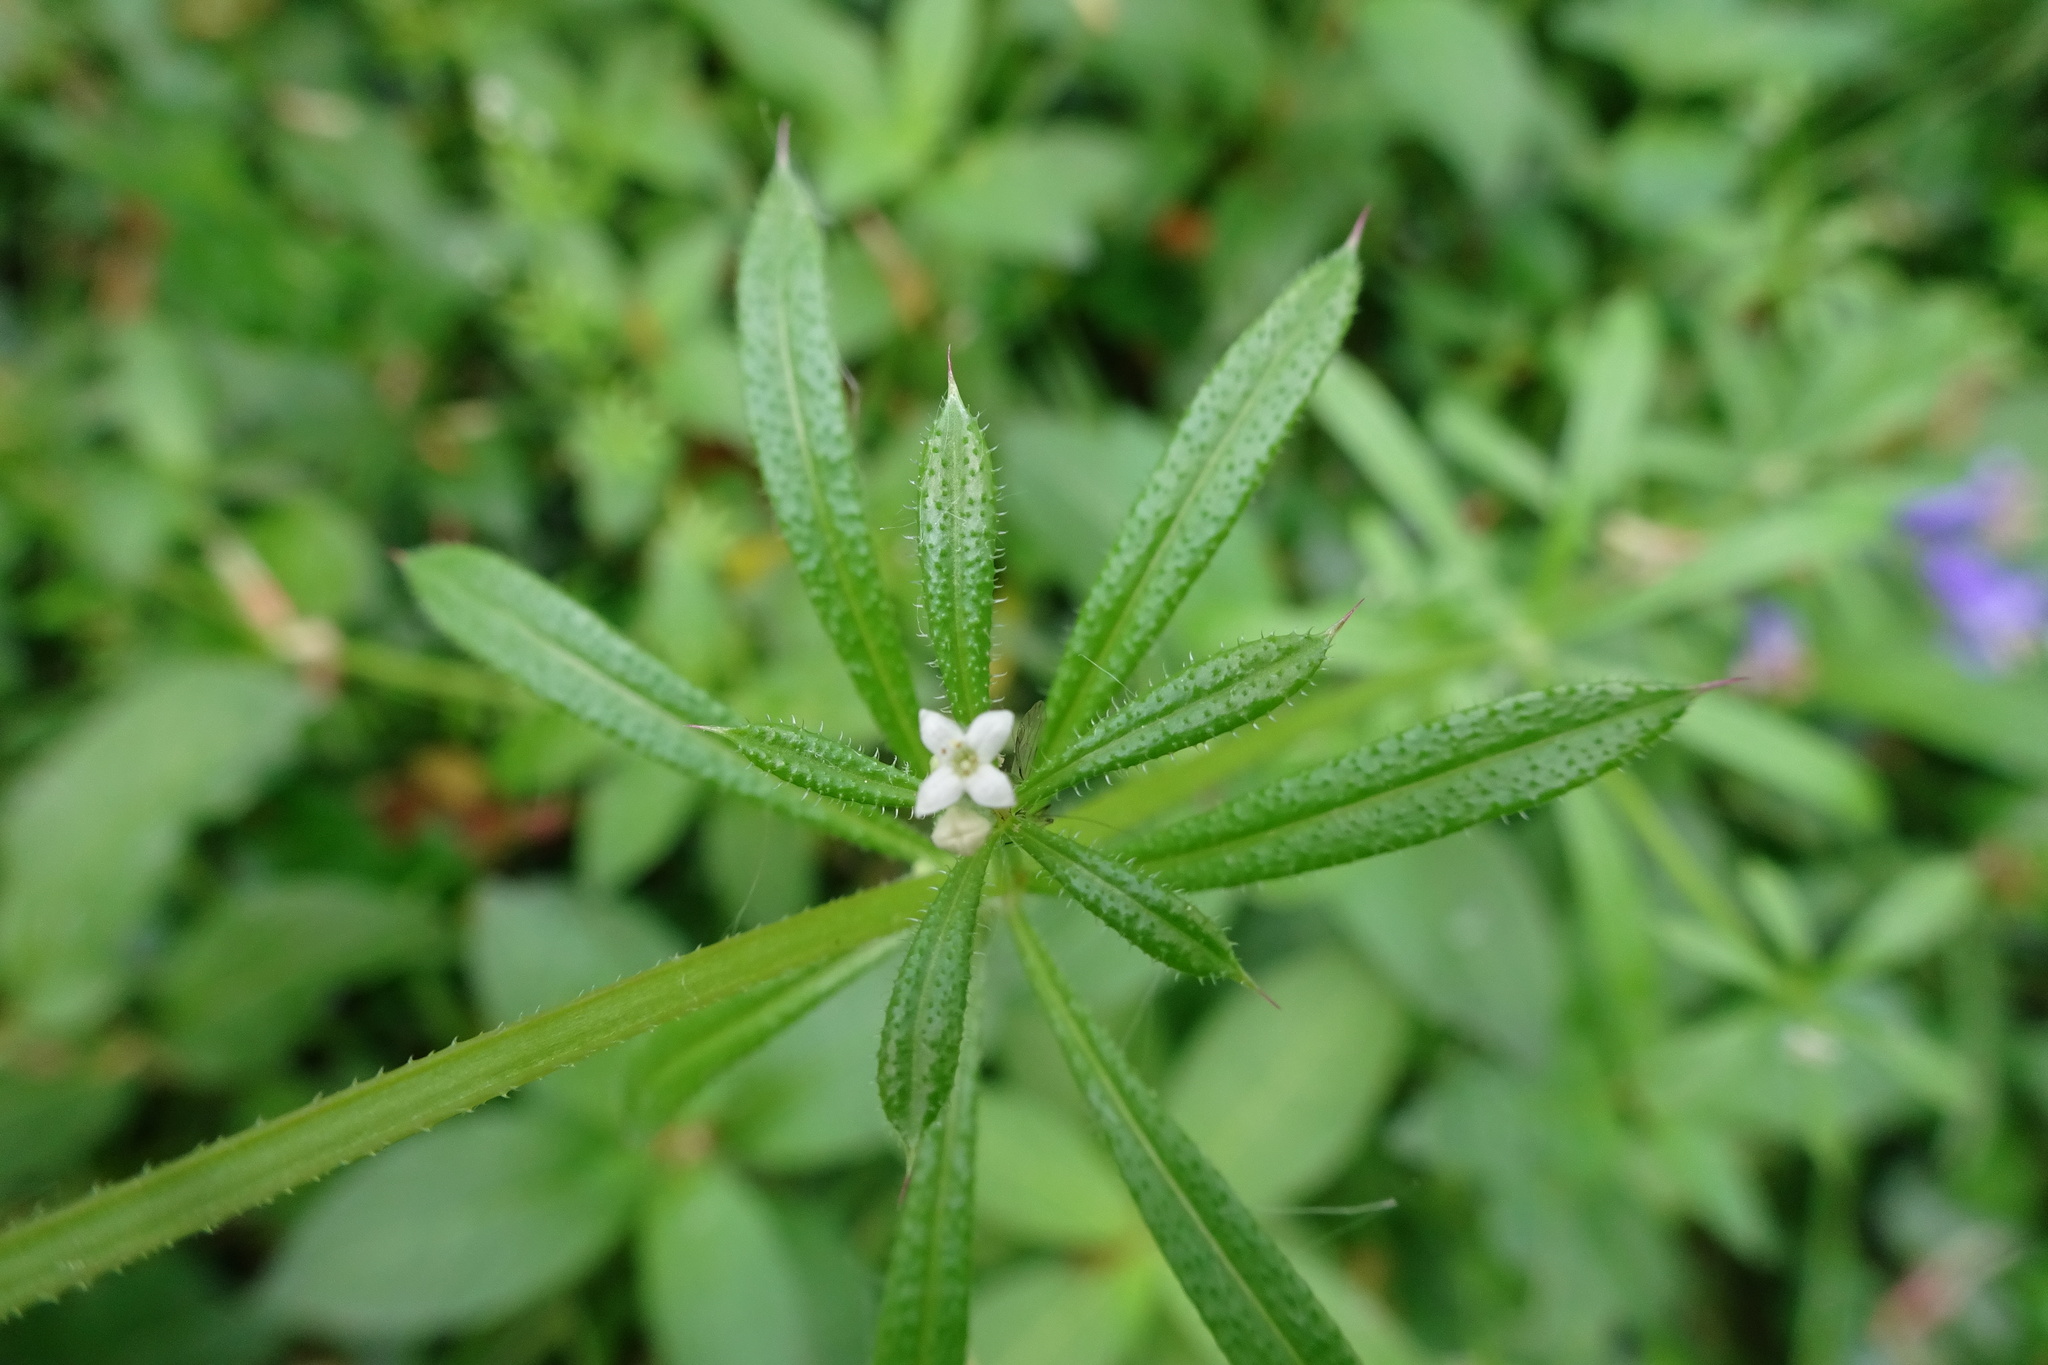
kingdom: Plantae
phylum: Tracheophyta
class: Magnoliopsida
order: Gentianales
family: Rubiaceae
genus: Galium
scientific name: Galium aparine
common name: Cleavers
